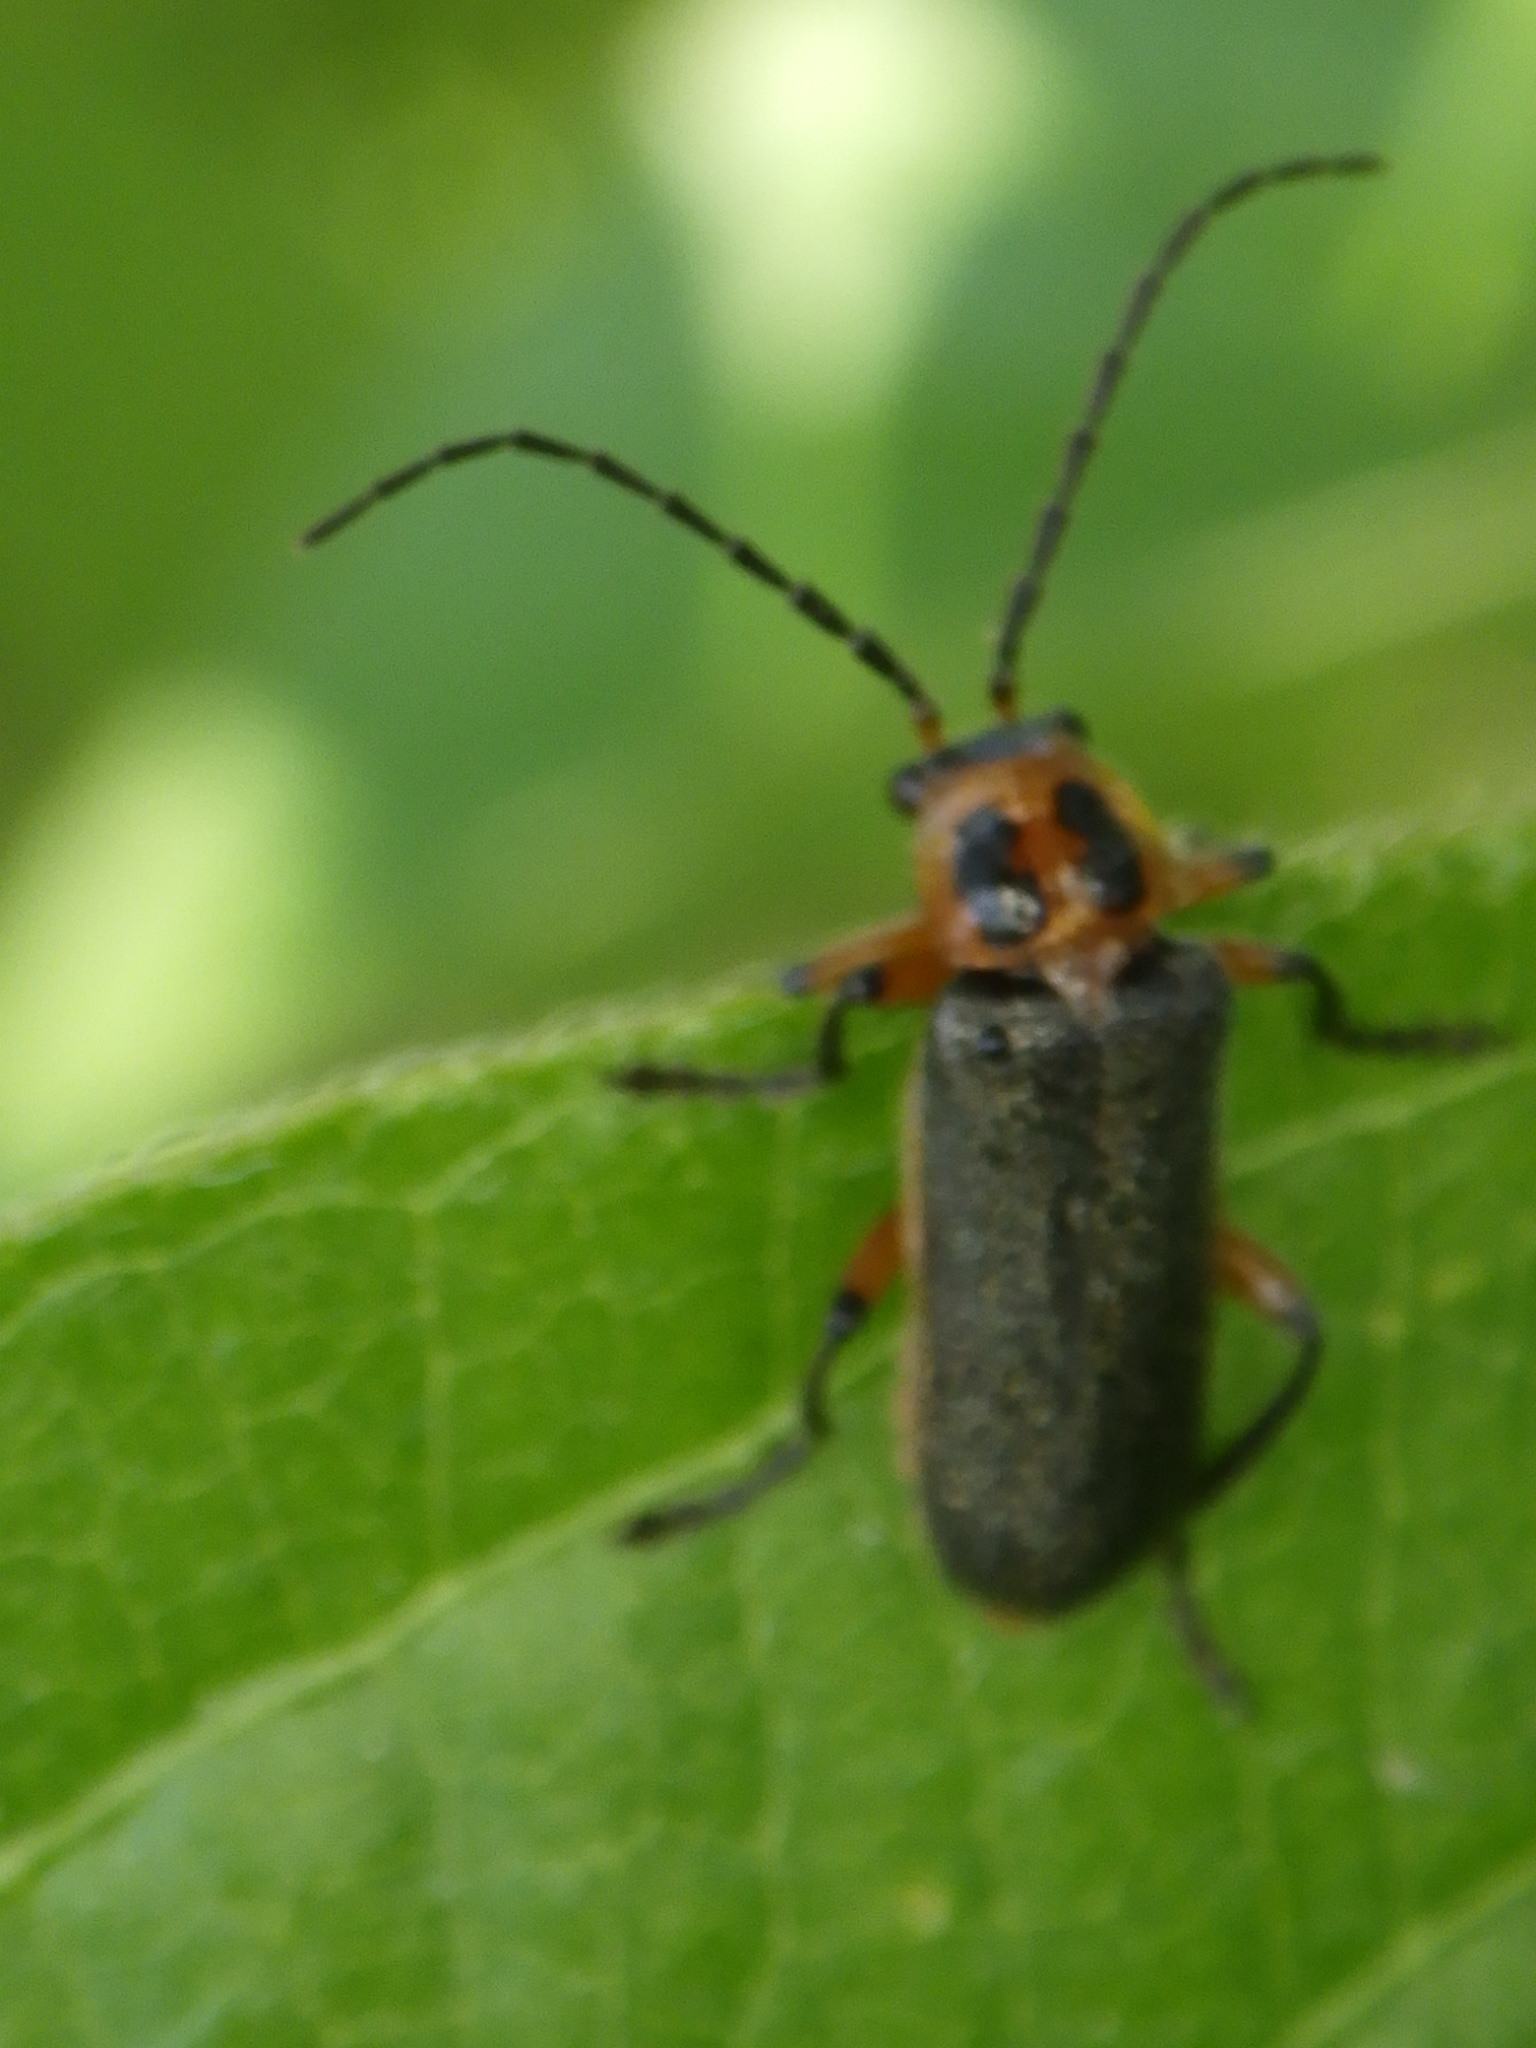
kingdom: Animalia
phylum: Arthropoda
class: Insecta
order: Coleoptera
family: Cantharidae
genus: Atalantycha
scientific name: Atalantycha bilineata
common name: Two-lined leatherwing
